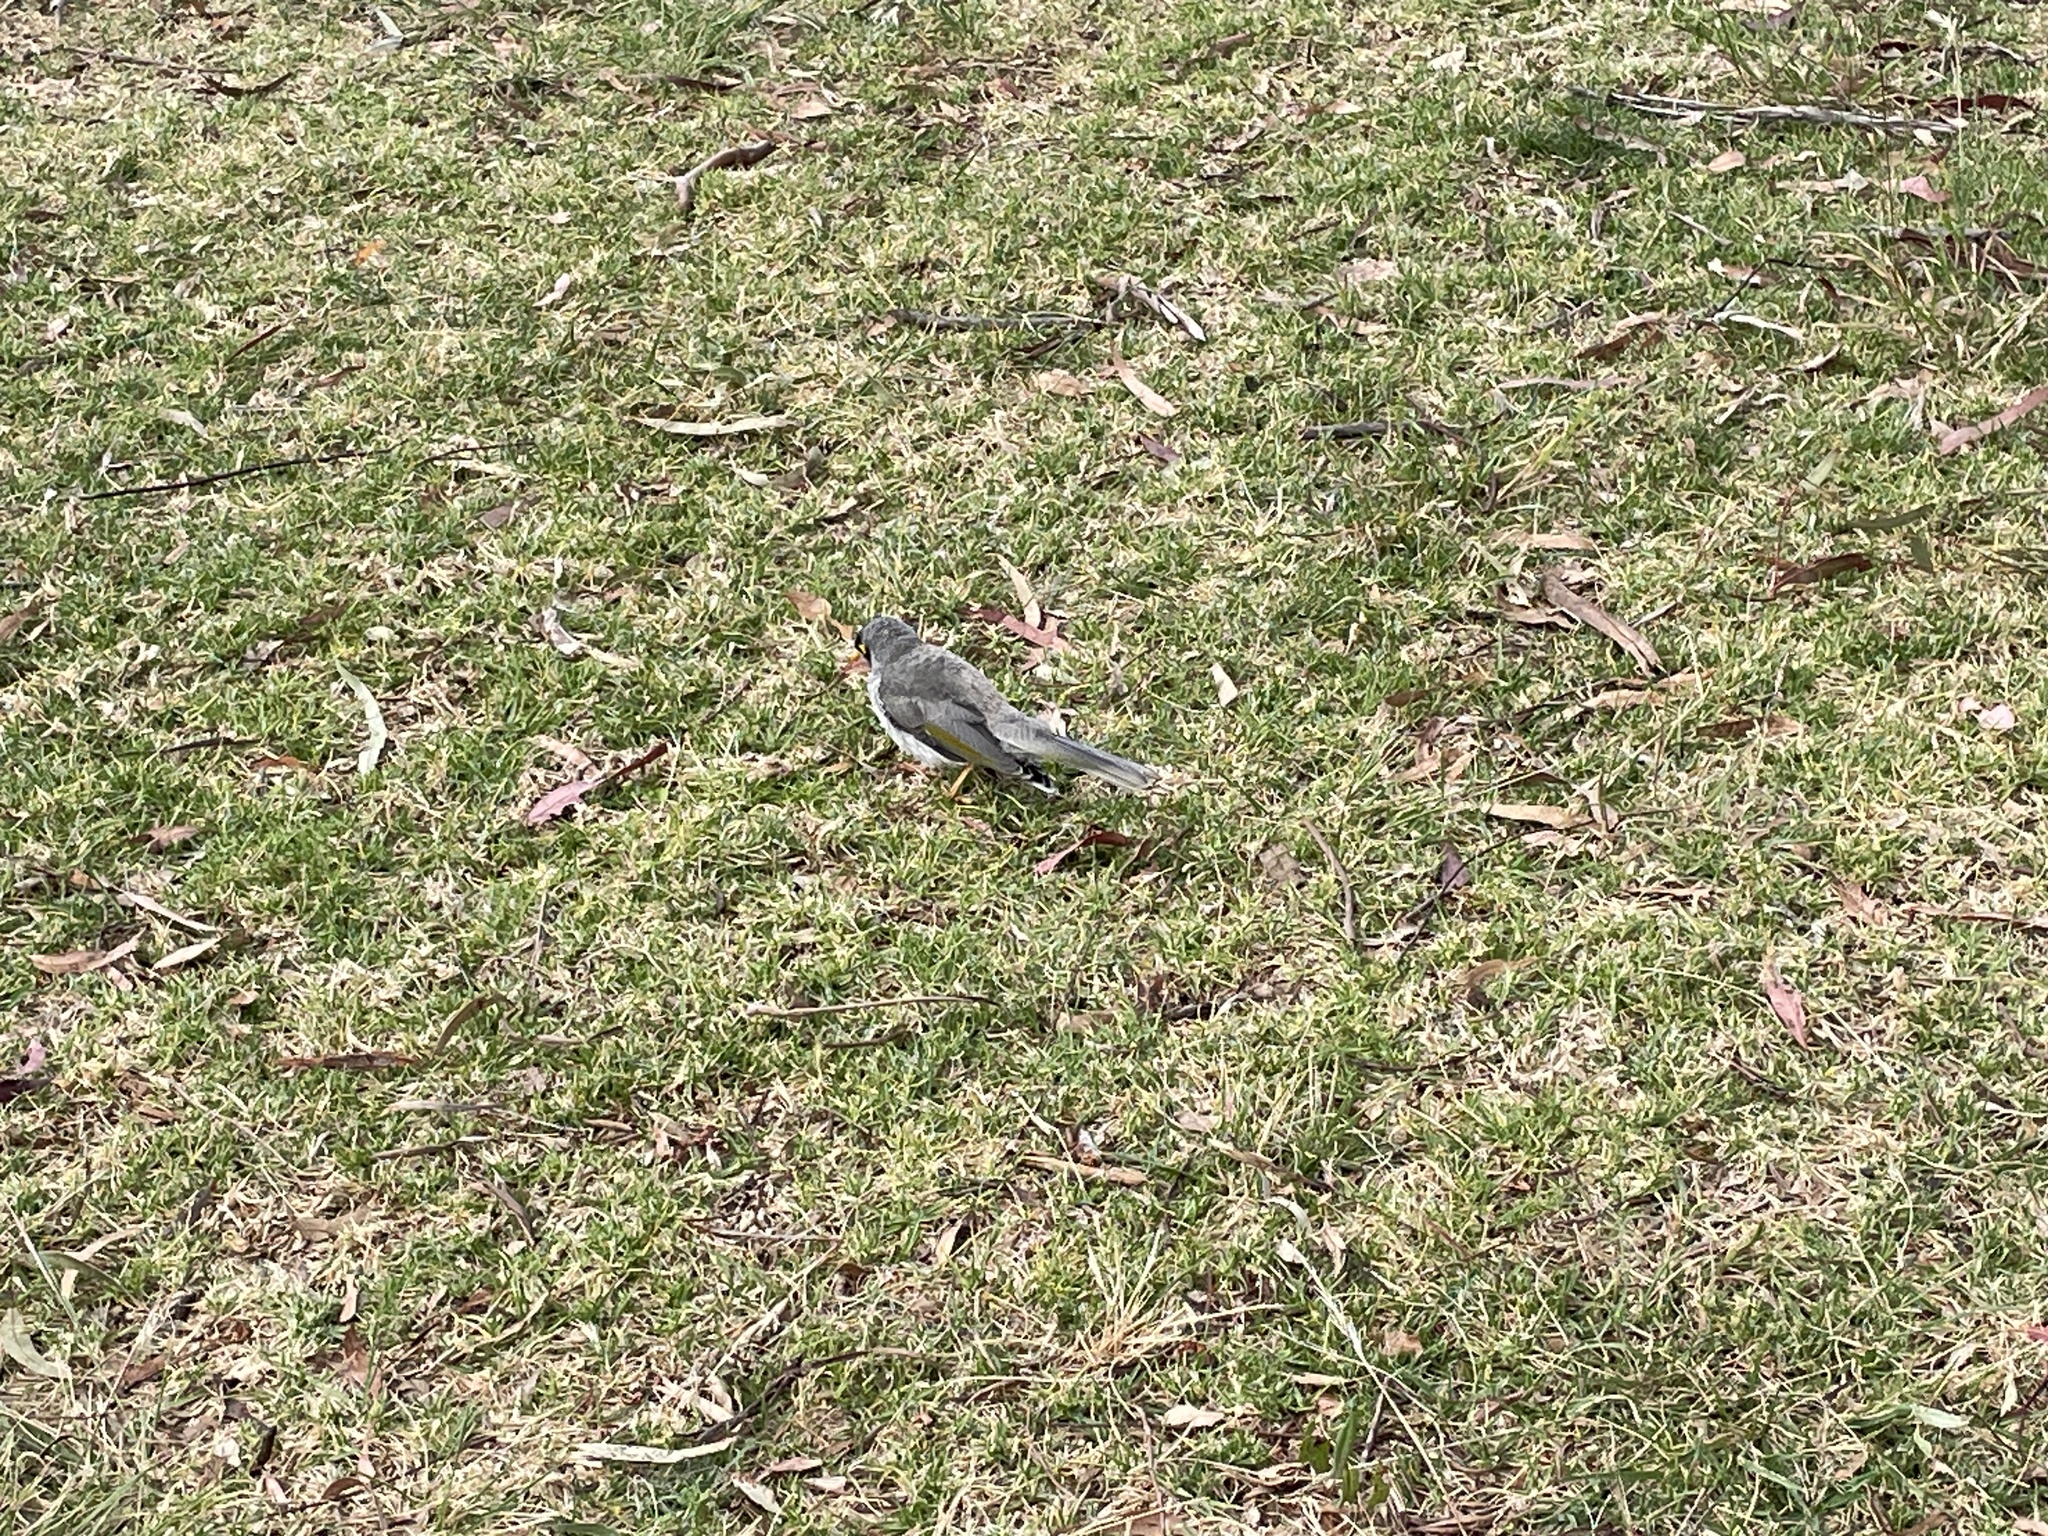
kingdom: Animalia
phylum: Chordata
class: Aves
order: Passeriformes
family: Meliphagidae
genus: Manorina
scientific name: Manorina melanocephala
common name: Noisy miner
